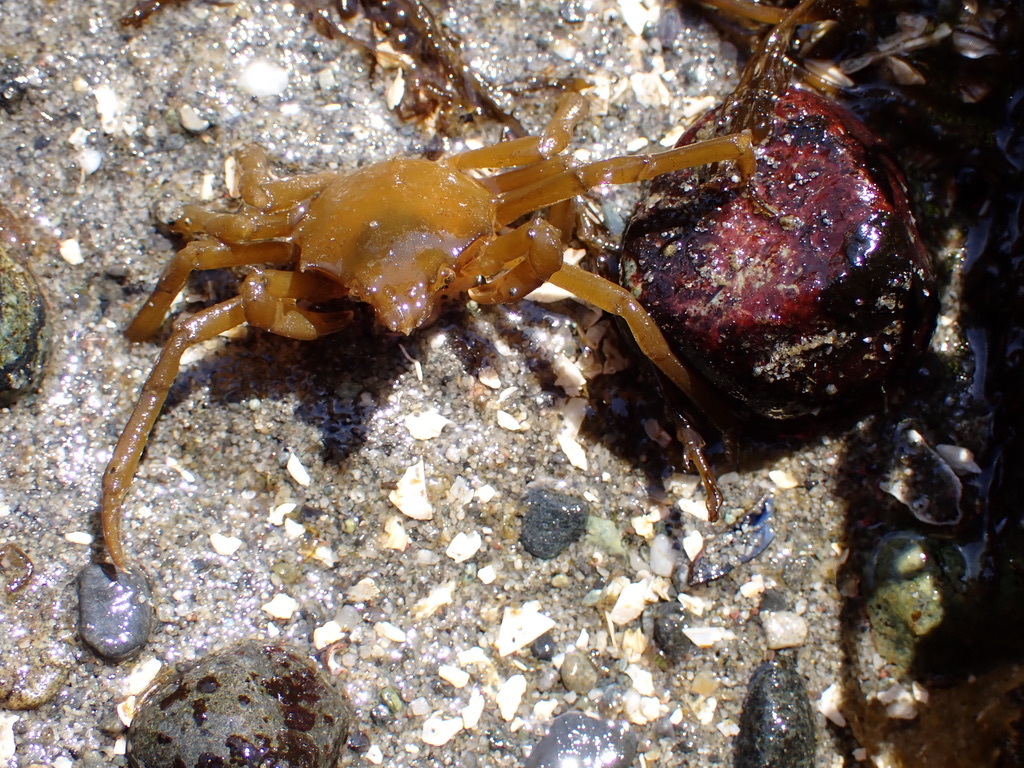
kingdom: Animalia
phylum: Arthropoda
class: Malacostraca
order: Decapoda
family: Epialtidae
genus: Pugettia
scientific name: Pugettia producta
